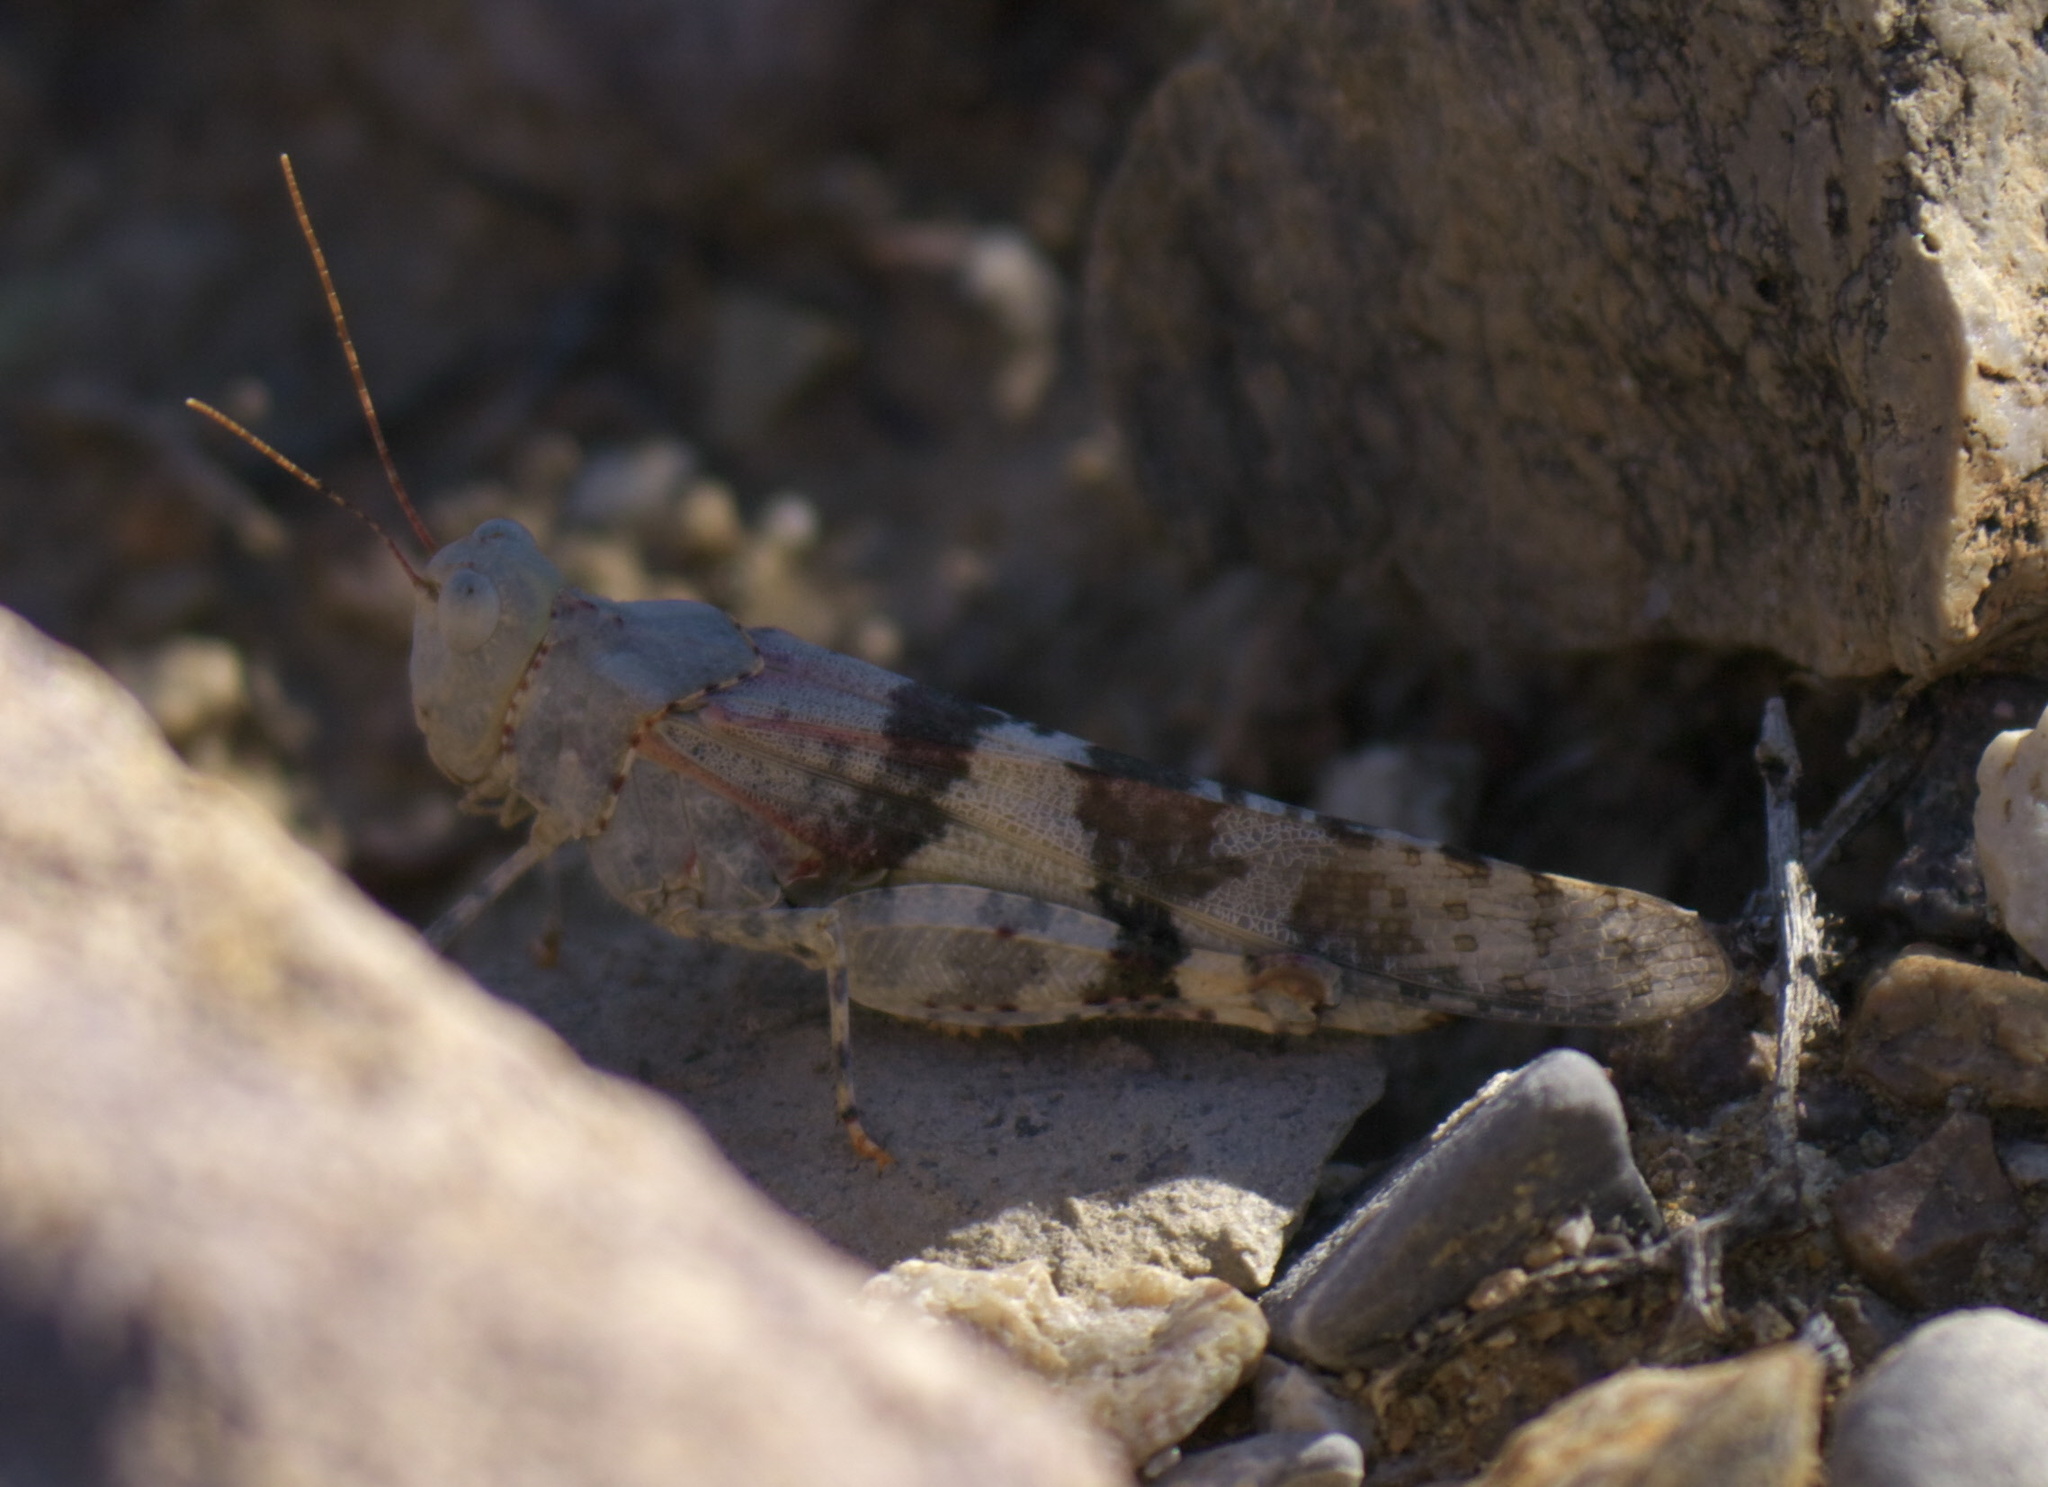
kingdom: Animalia
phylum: Arthropoda
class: Insecta
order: Orthoptera
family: Acrididae
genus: Trimerotropis
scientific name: Trimerotropis californica
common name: California band-winged grasshopper
